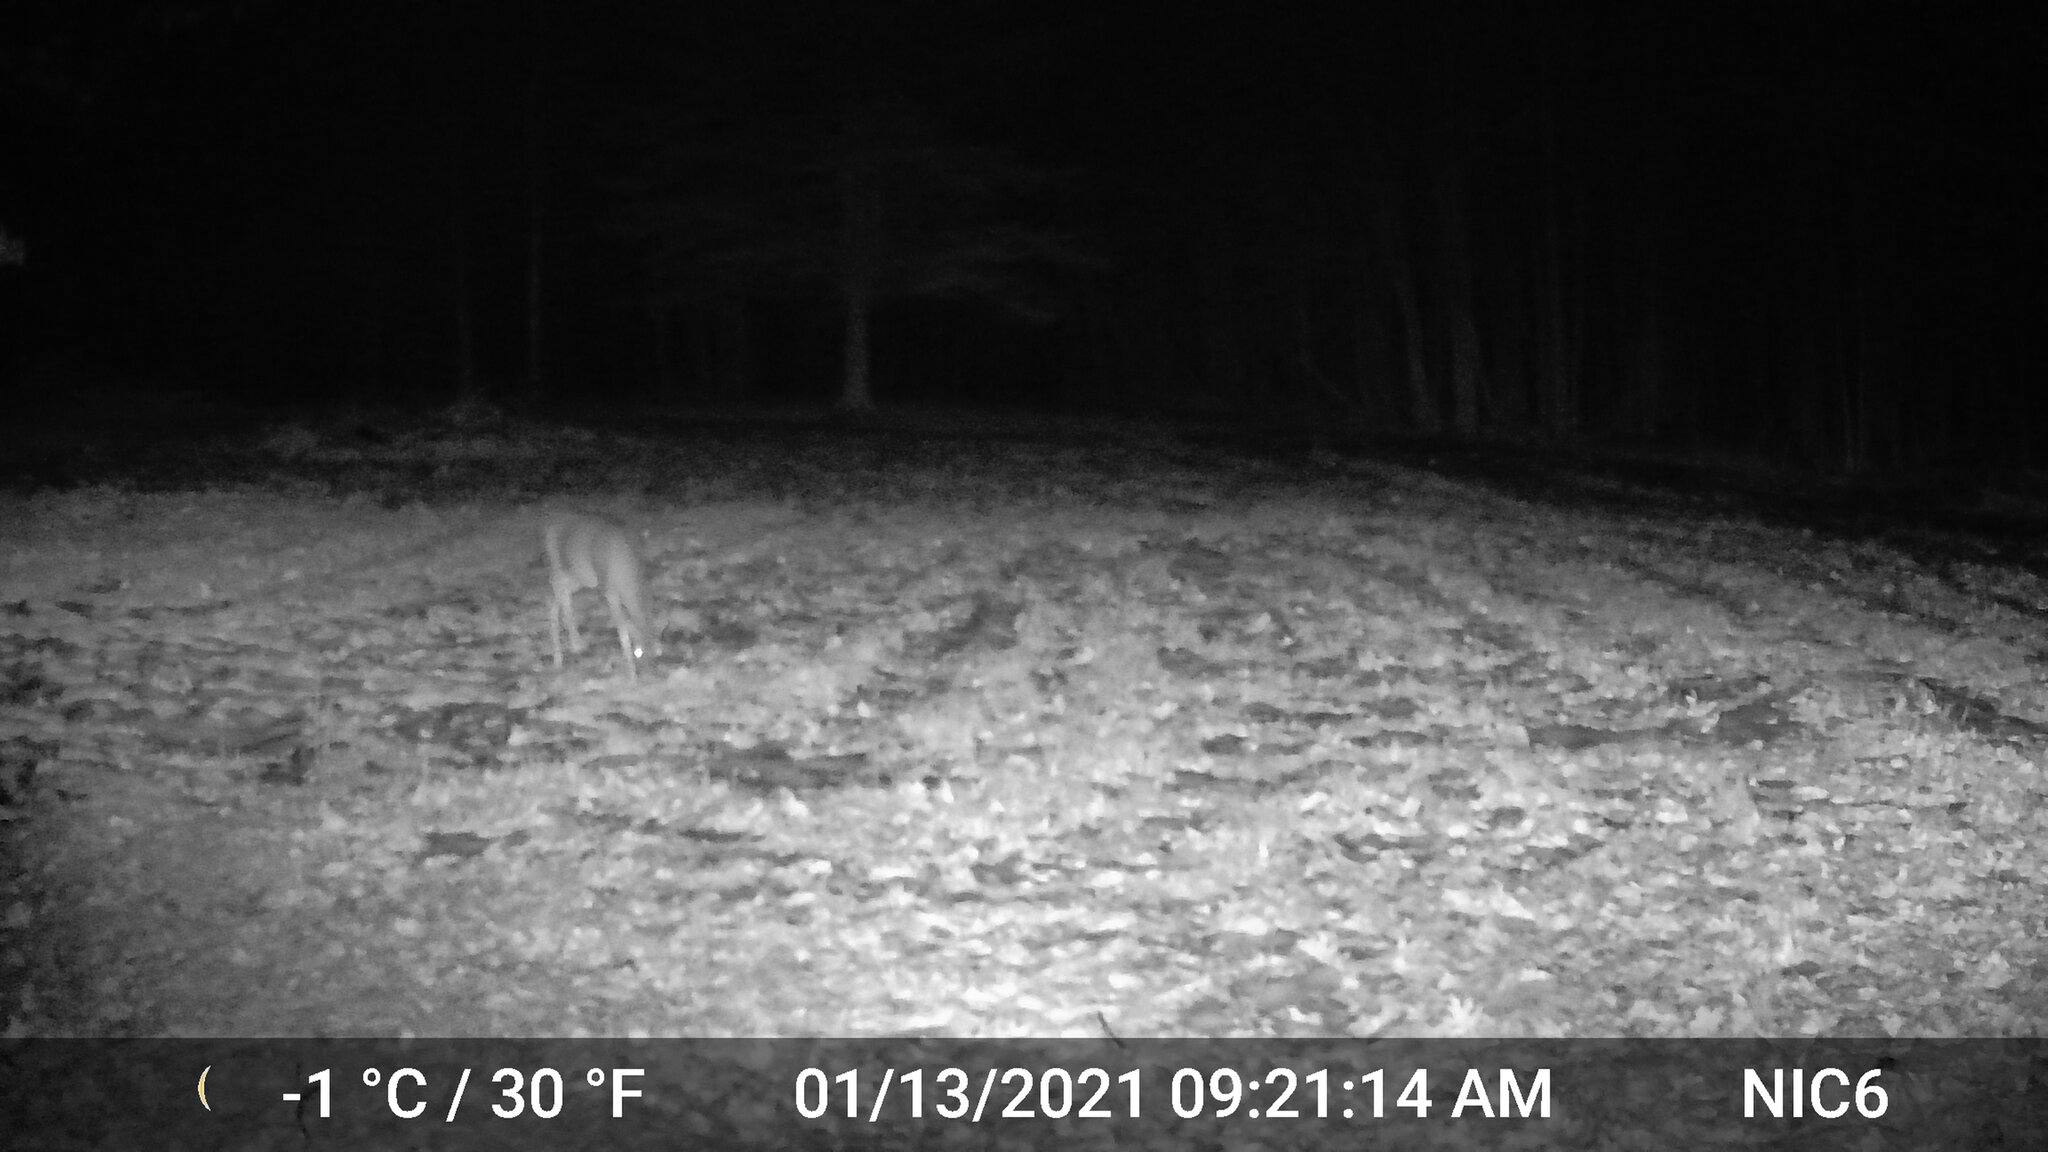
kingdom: Animalia
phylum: Chordata
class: Mammalia
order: Artiodactyla
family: Cervidae
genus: Odocoileus
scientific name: Odocoileus virginianus
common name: White-tailed deer
